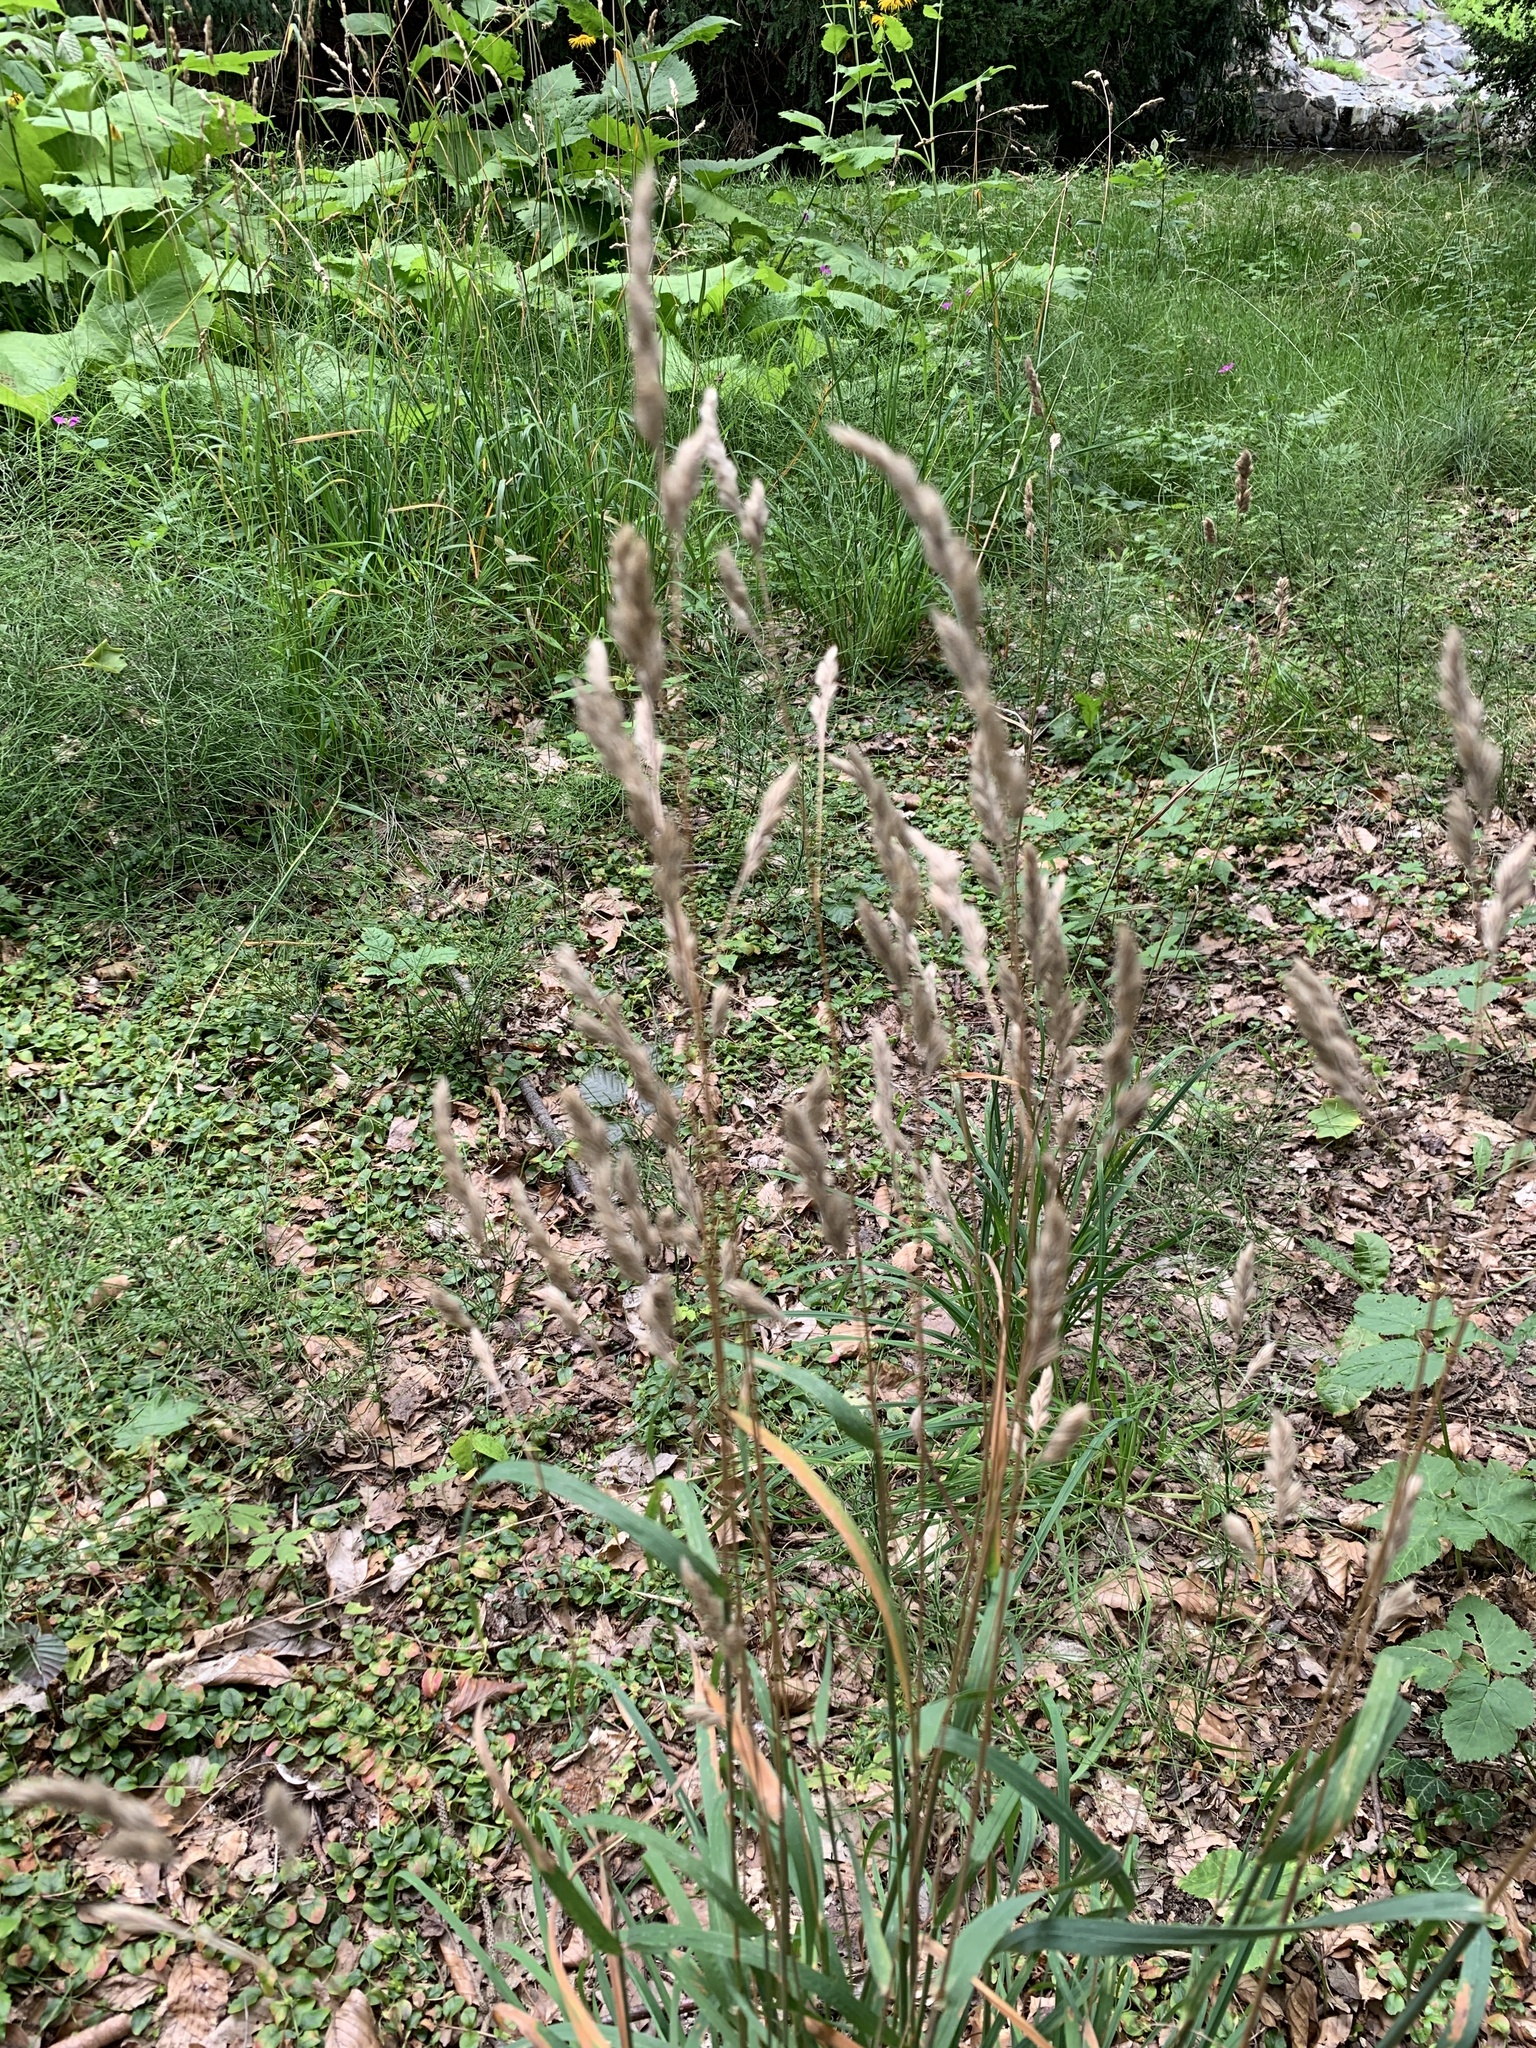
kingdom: Plantae
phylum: Tracheophyta
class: Liliopsida
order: Poales
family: Poaceae
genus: Dactylis
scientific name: Dactylis glomerata
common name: Orchardgrass
